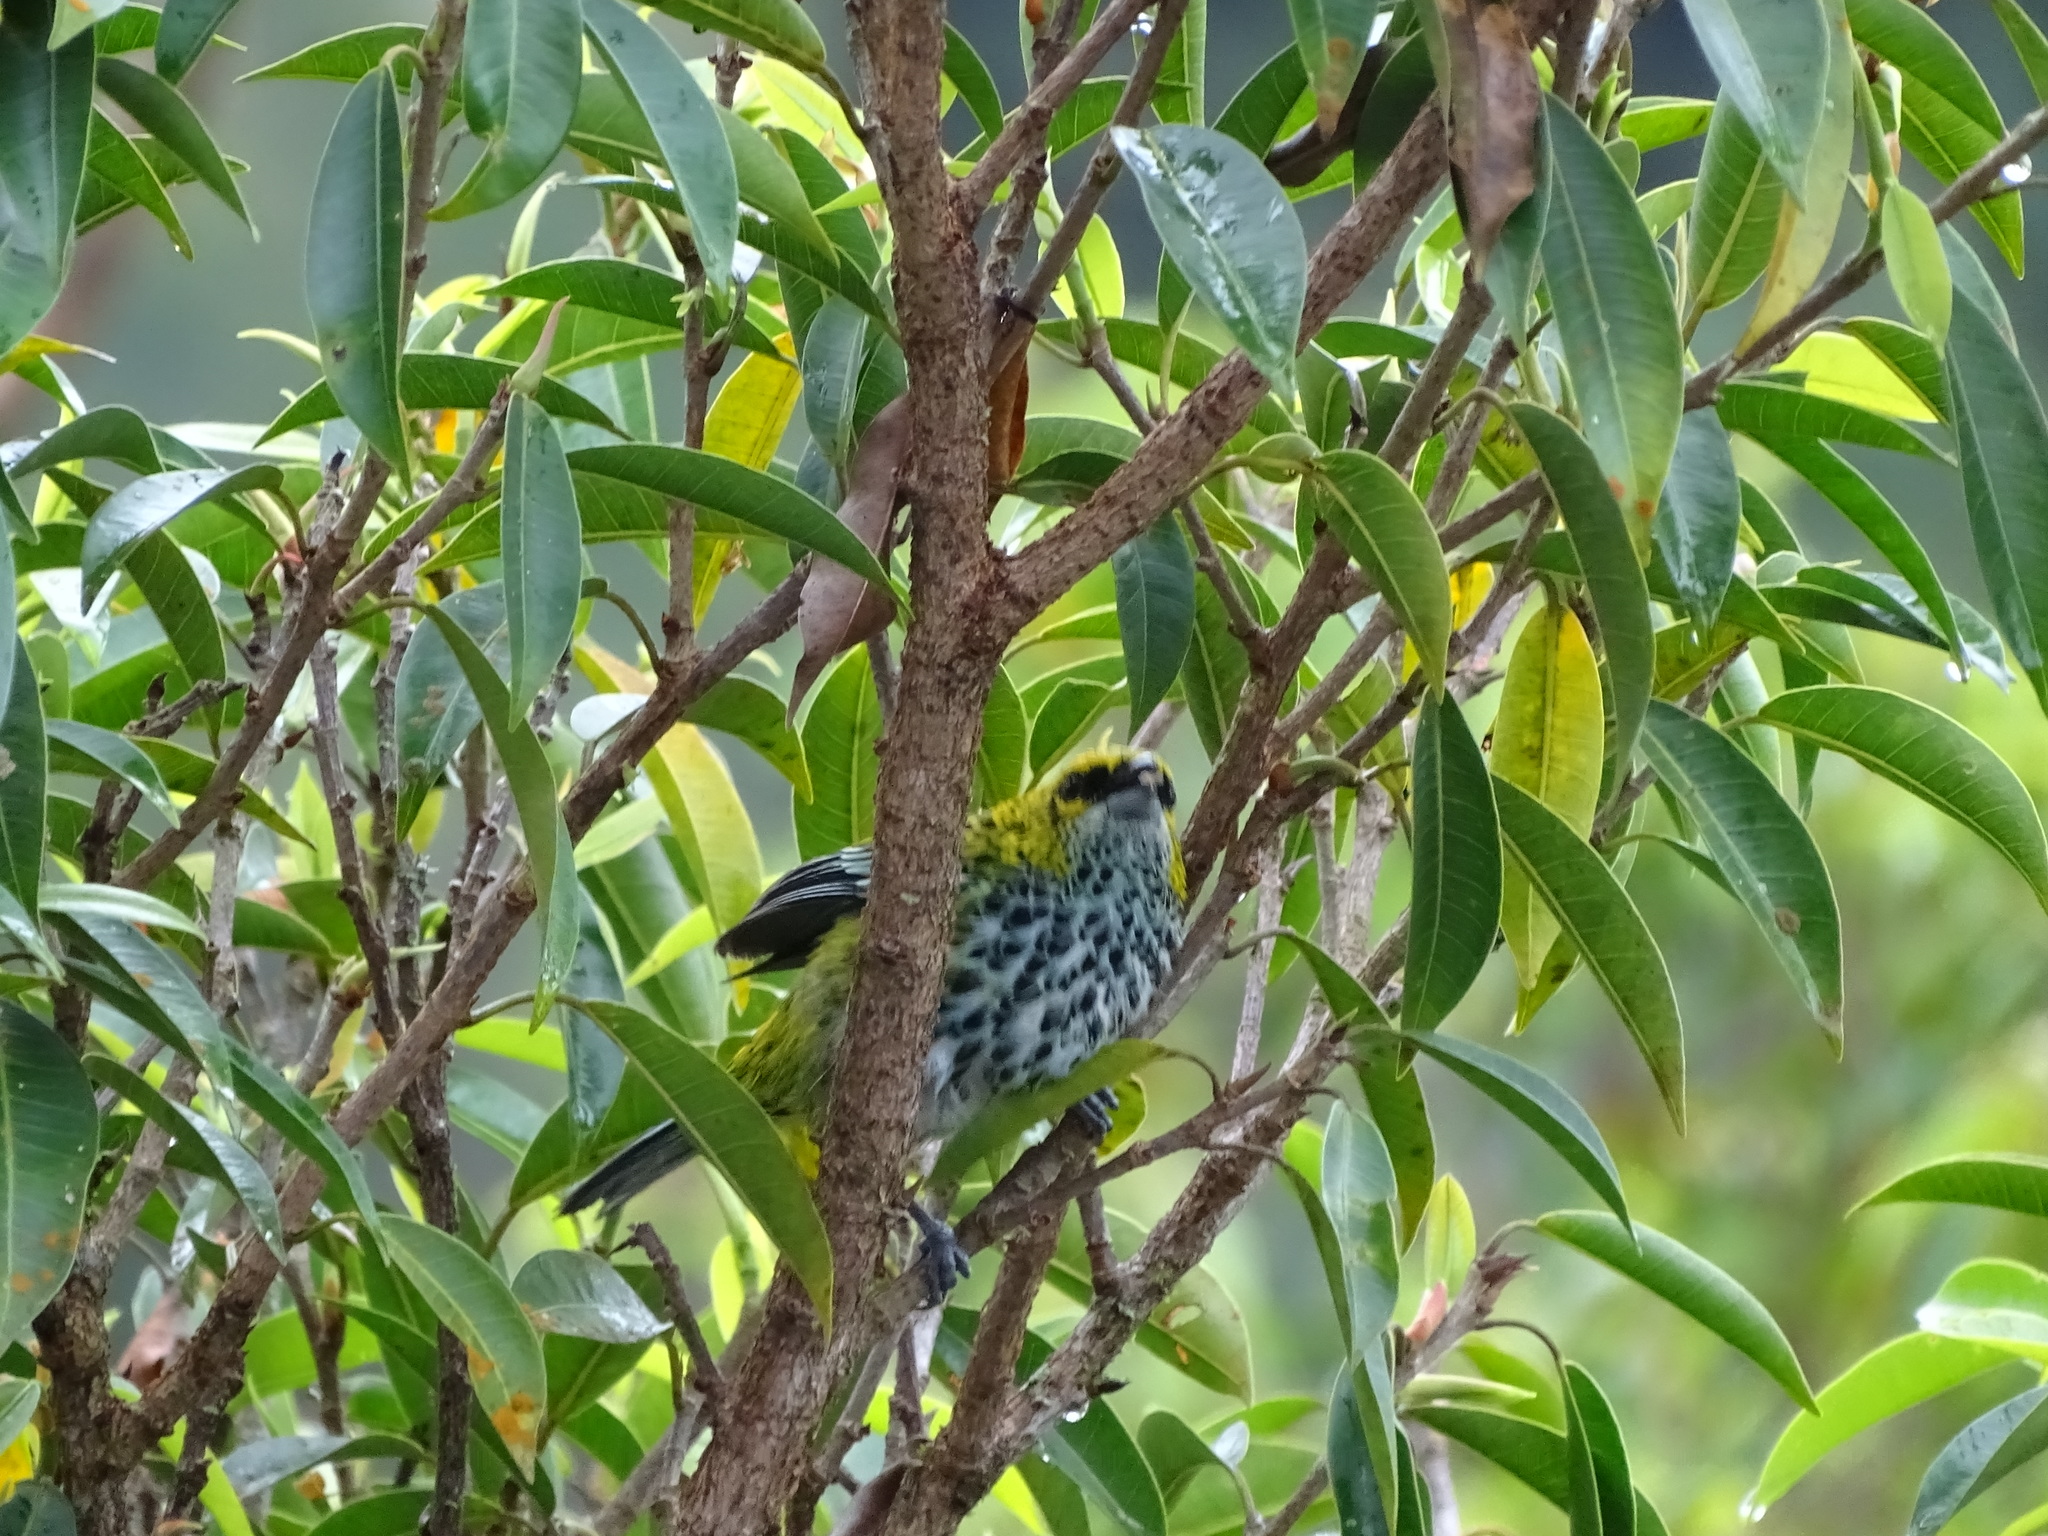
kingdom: Animalia
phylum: Chordata
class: Aves
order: Passeriformes
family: Thraupidae
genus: Ixothraupis
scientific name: Ixothraupis guttata
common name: Speckled tanager
